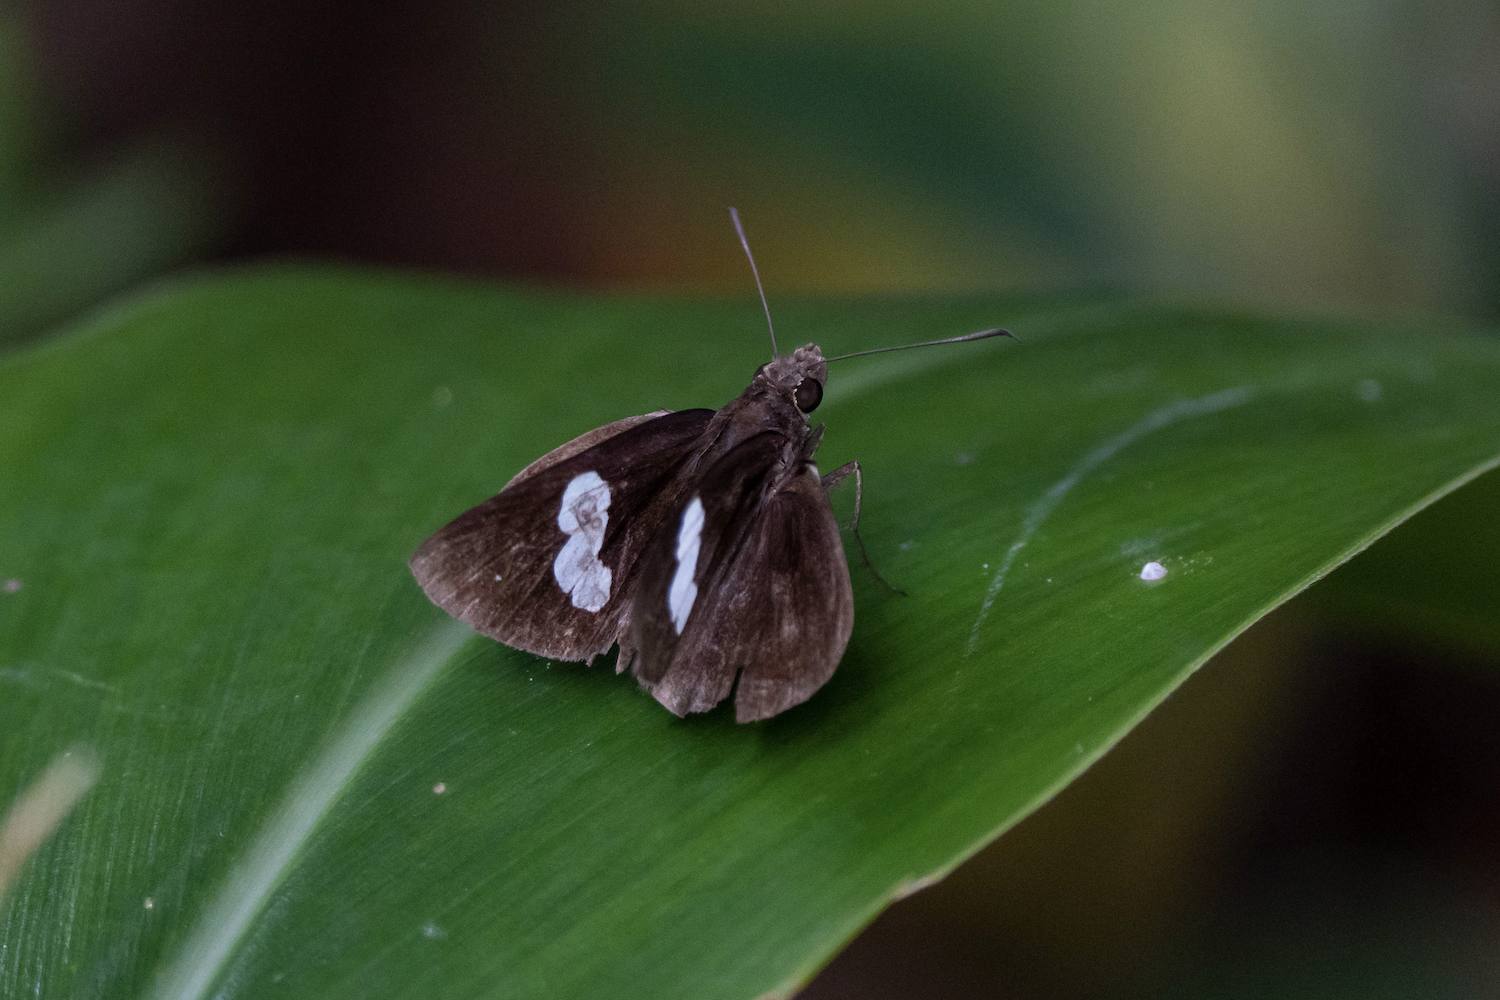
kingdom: Animalia
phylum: Arthropoda
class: Insecta
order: Lepidoptera
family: Hesperiidae
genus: Notocrypta
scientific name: Notocrypta paralysos
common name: Common banded demon
